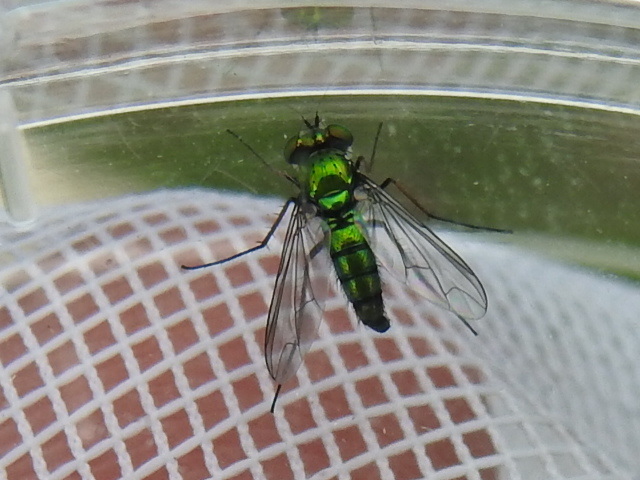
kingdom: Animalia
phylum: Arthropoda
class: Insecta
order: Diptera
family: Dolichopodidae
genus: Condylostylus
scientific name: Condylostylus longicornis
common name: Long-legged fly
